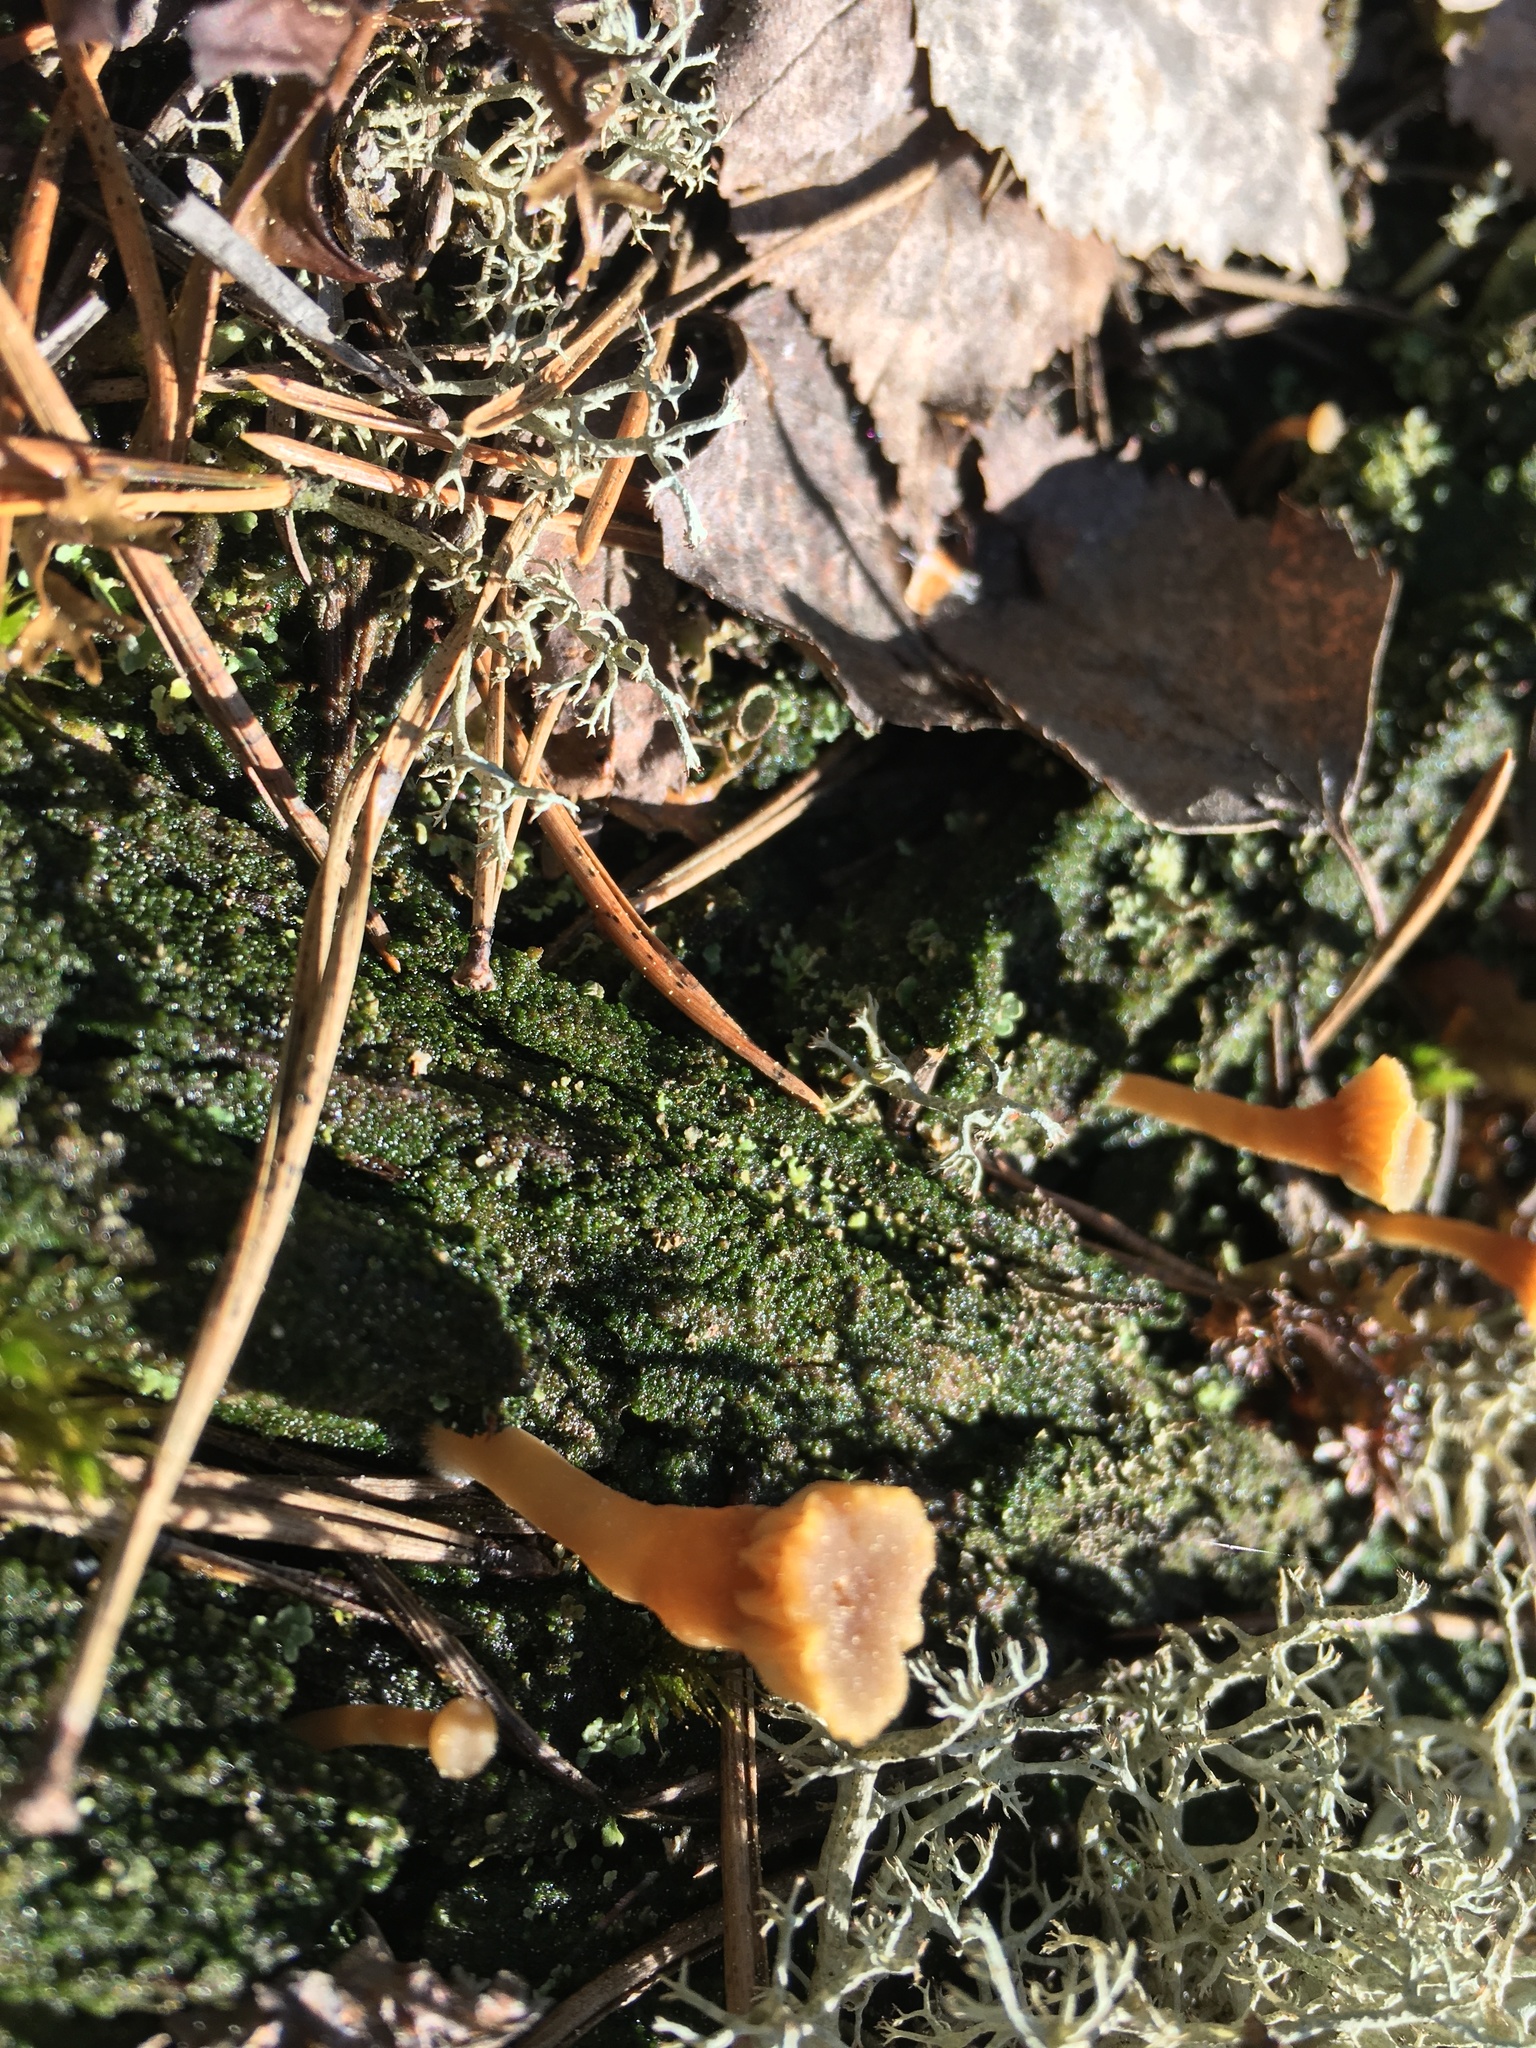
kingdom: Fungi
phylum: Basidiomycota
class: Agaricomycetes
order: Agaricales
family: Hygrophoraceae
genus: Lichenomphalia
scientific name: Lichenomphalia
